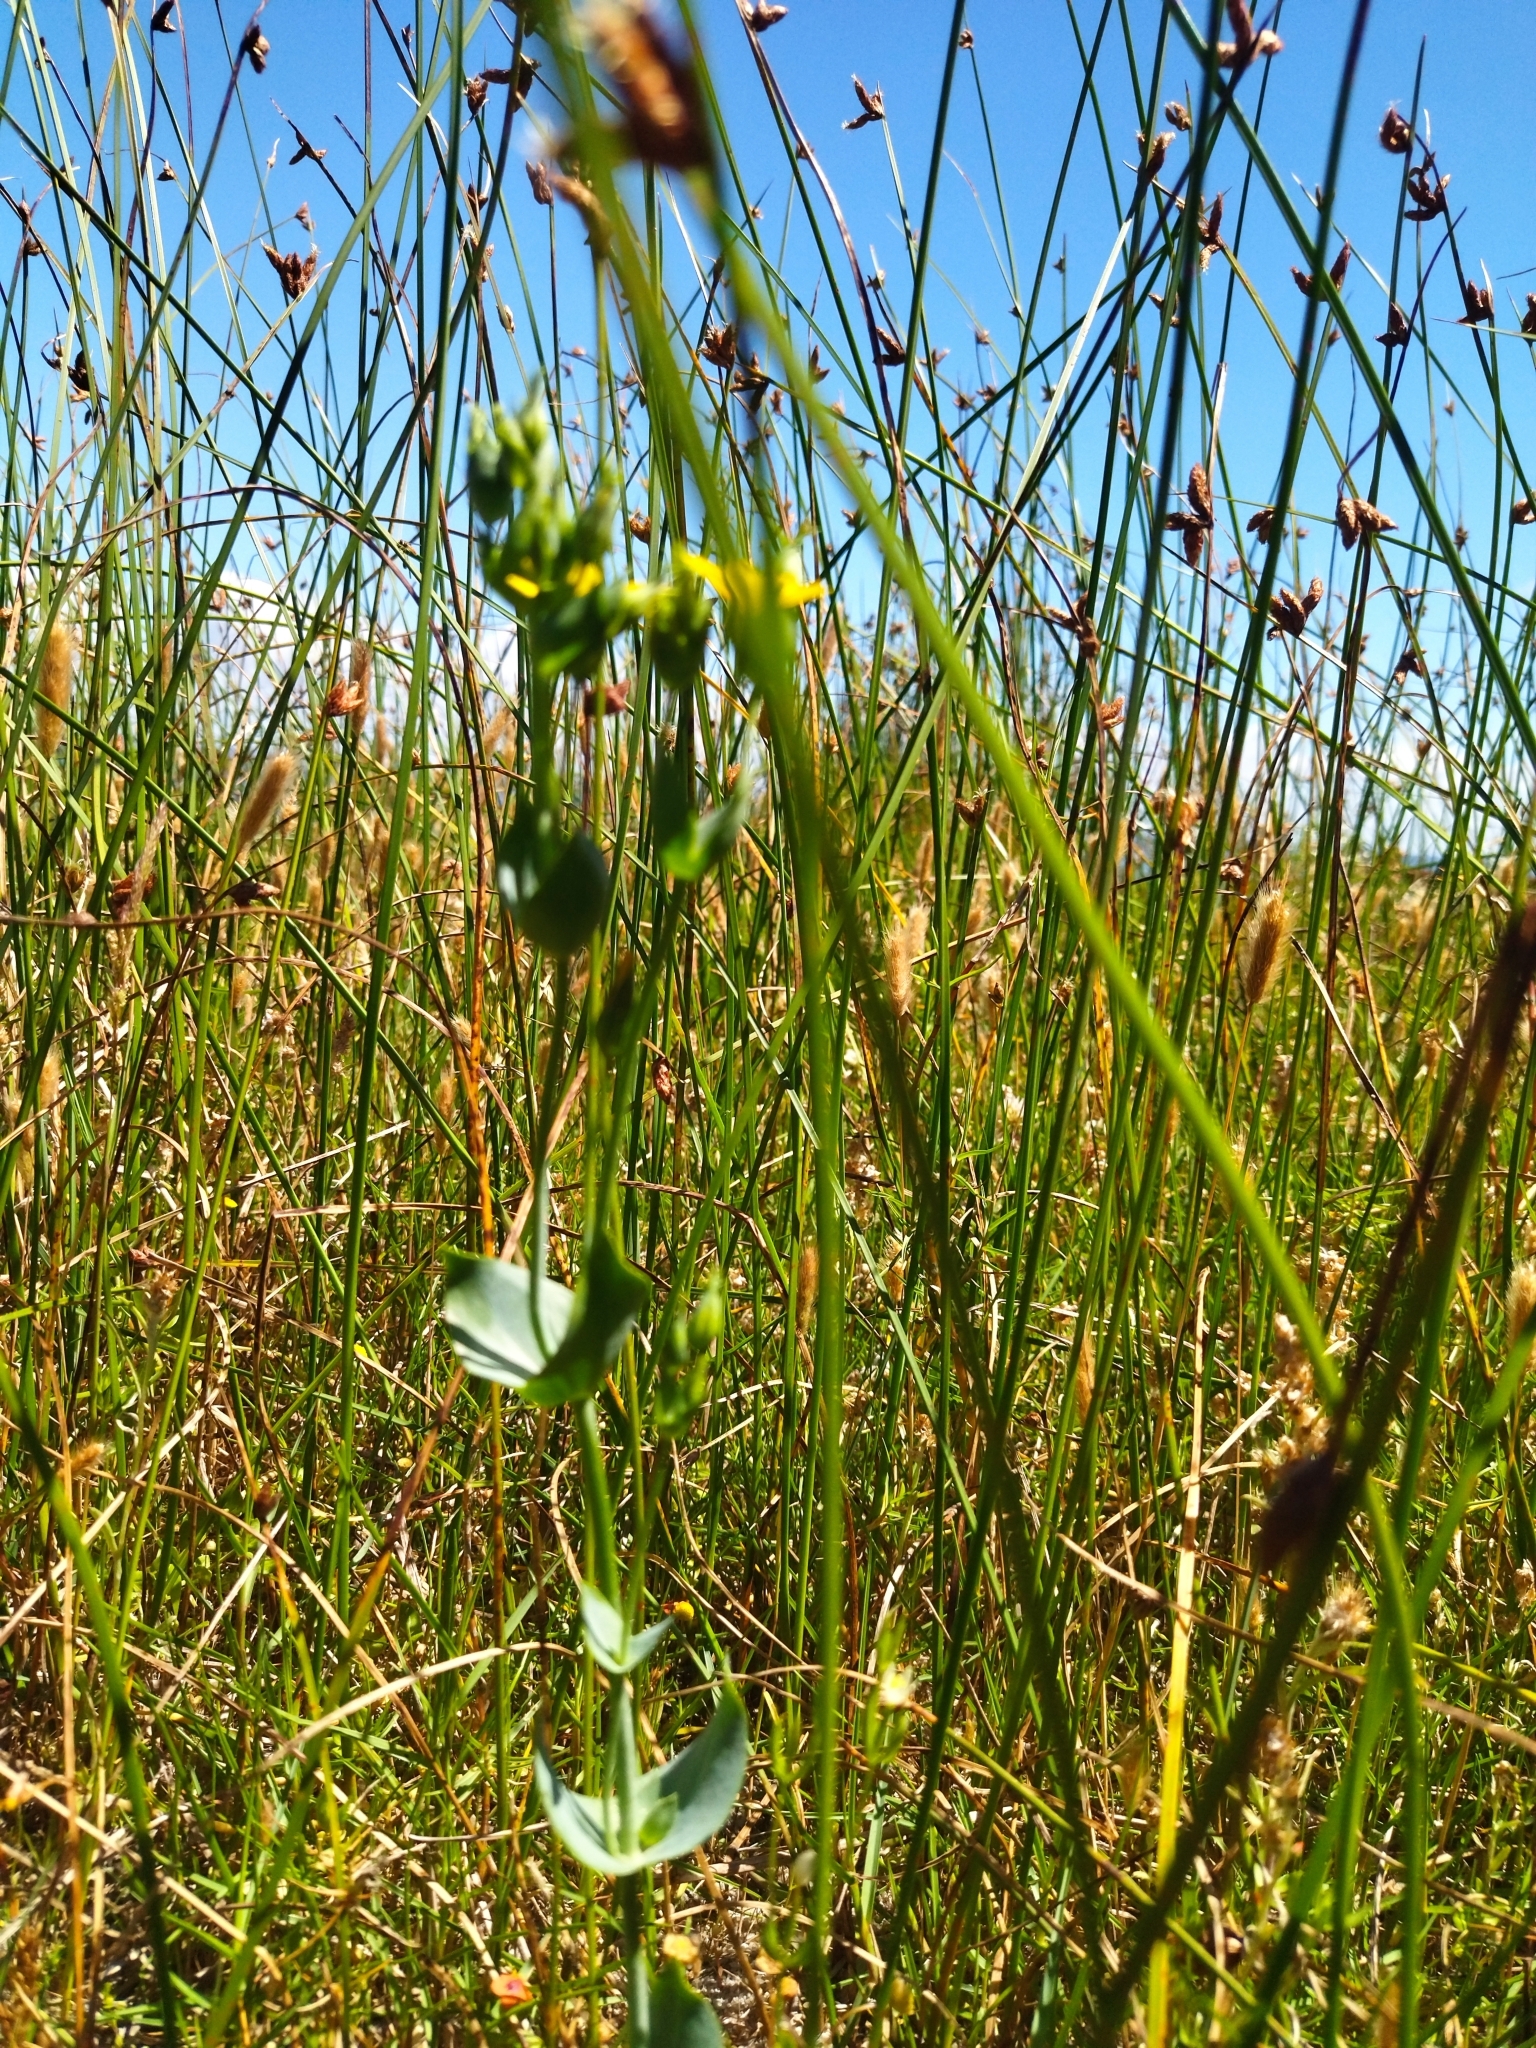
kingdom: Plantae
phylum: Tracheophyta
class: Magnoliopsida
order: Gentianales
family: Gentianaceae
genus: Blackstonia
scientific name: Blackstonia perfoliata
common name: Yellow-wort
